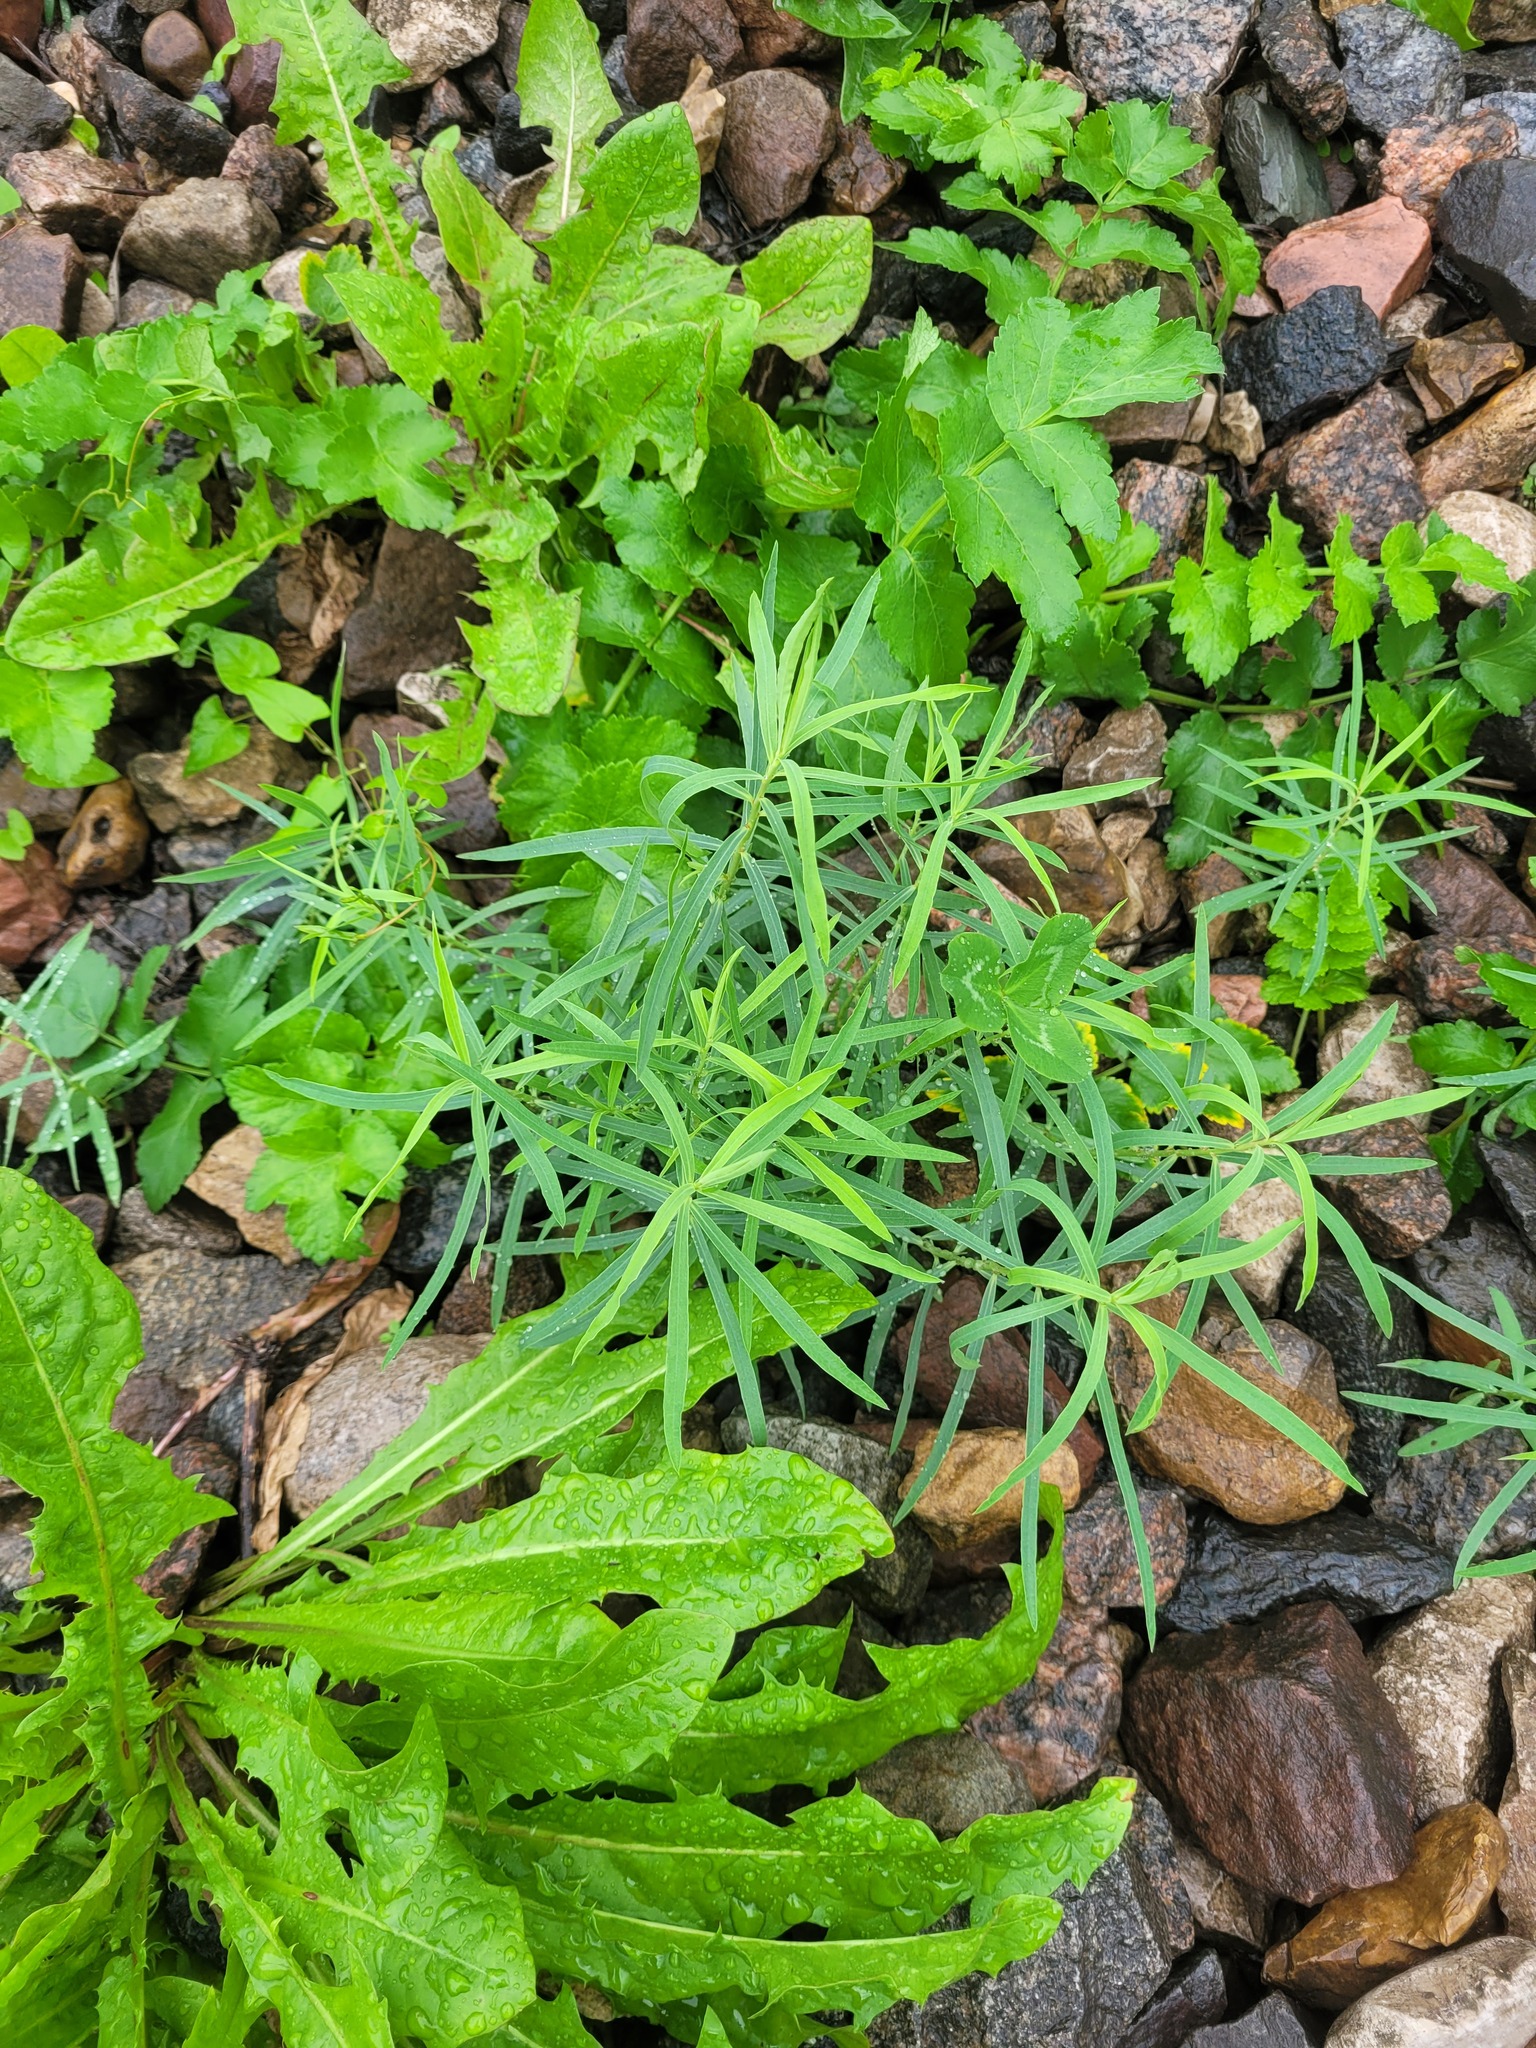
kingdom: Plantae
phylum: Tracheophyta
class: Magnoliopsida
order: Malpighiales
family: Euphorbiaceae
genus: Euphorbia
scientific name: Euphorbia virgata
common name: Leafy spurge
